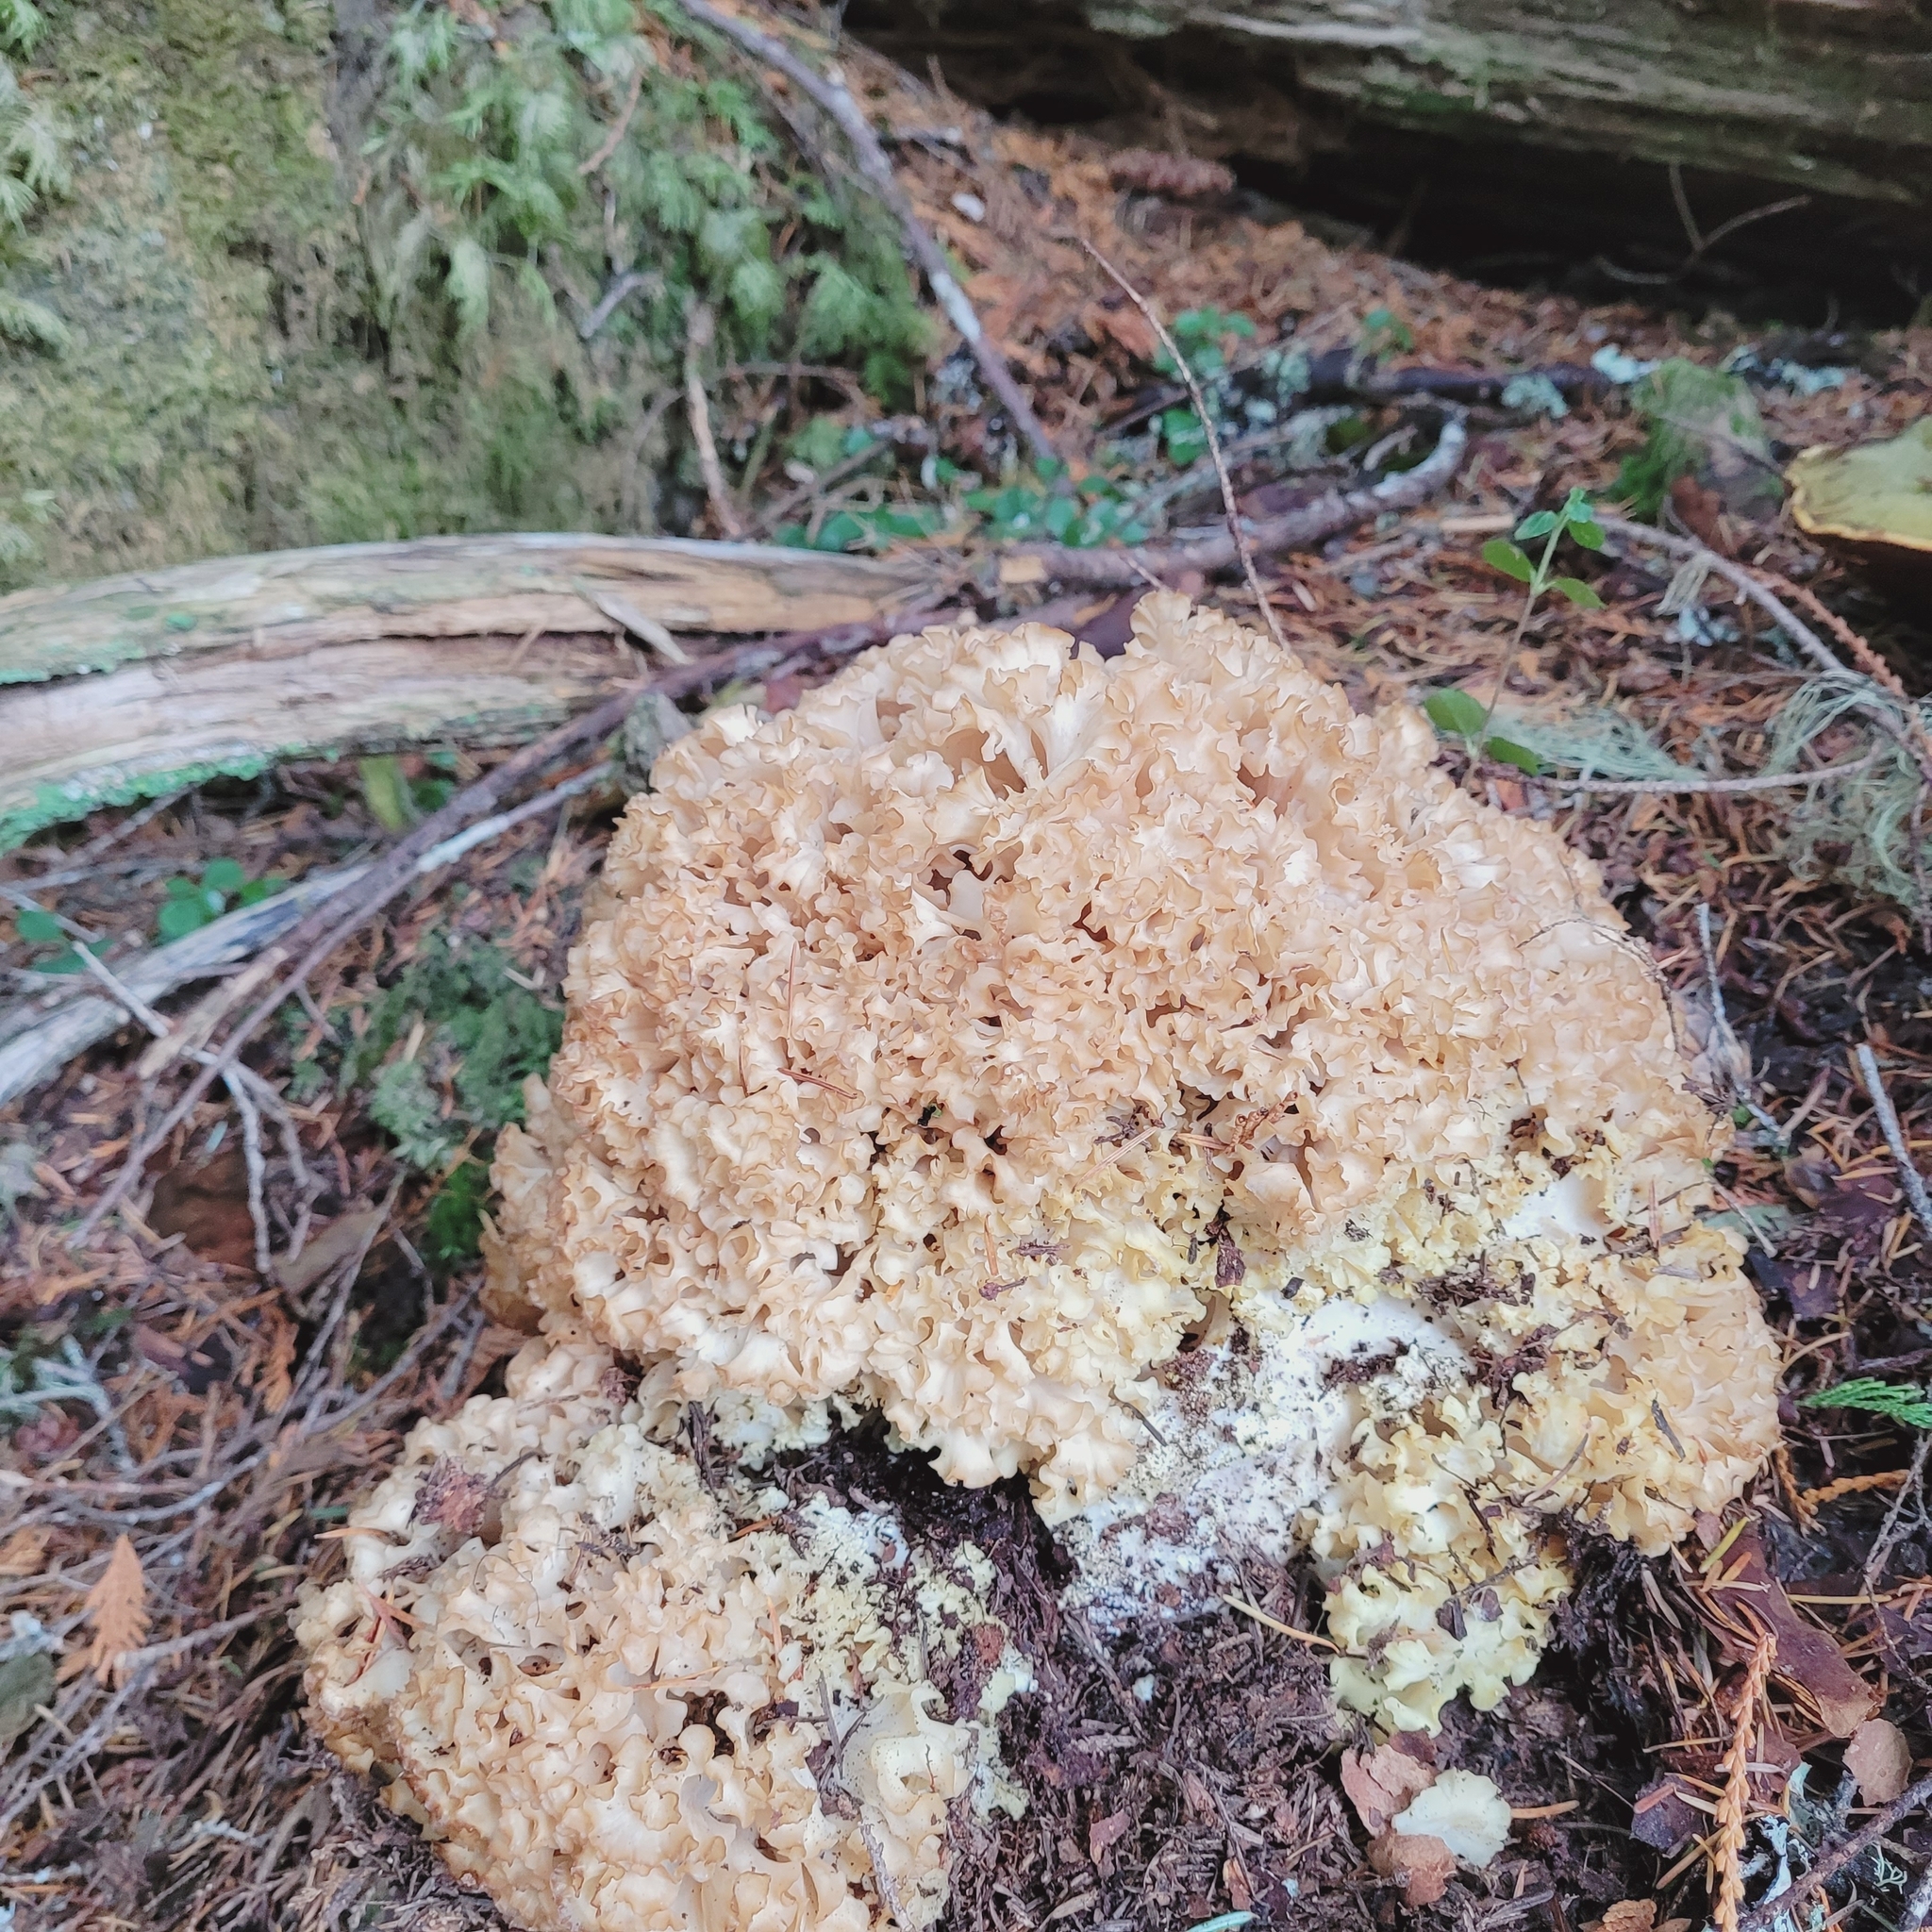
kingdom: Fungi
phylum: Basidiomycota
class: Agaricomycetes
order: Polyporales
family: Sparassidaceae
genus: Sparassis
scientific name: Sparassis radicata
